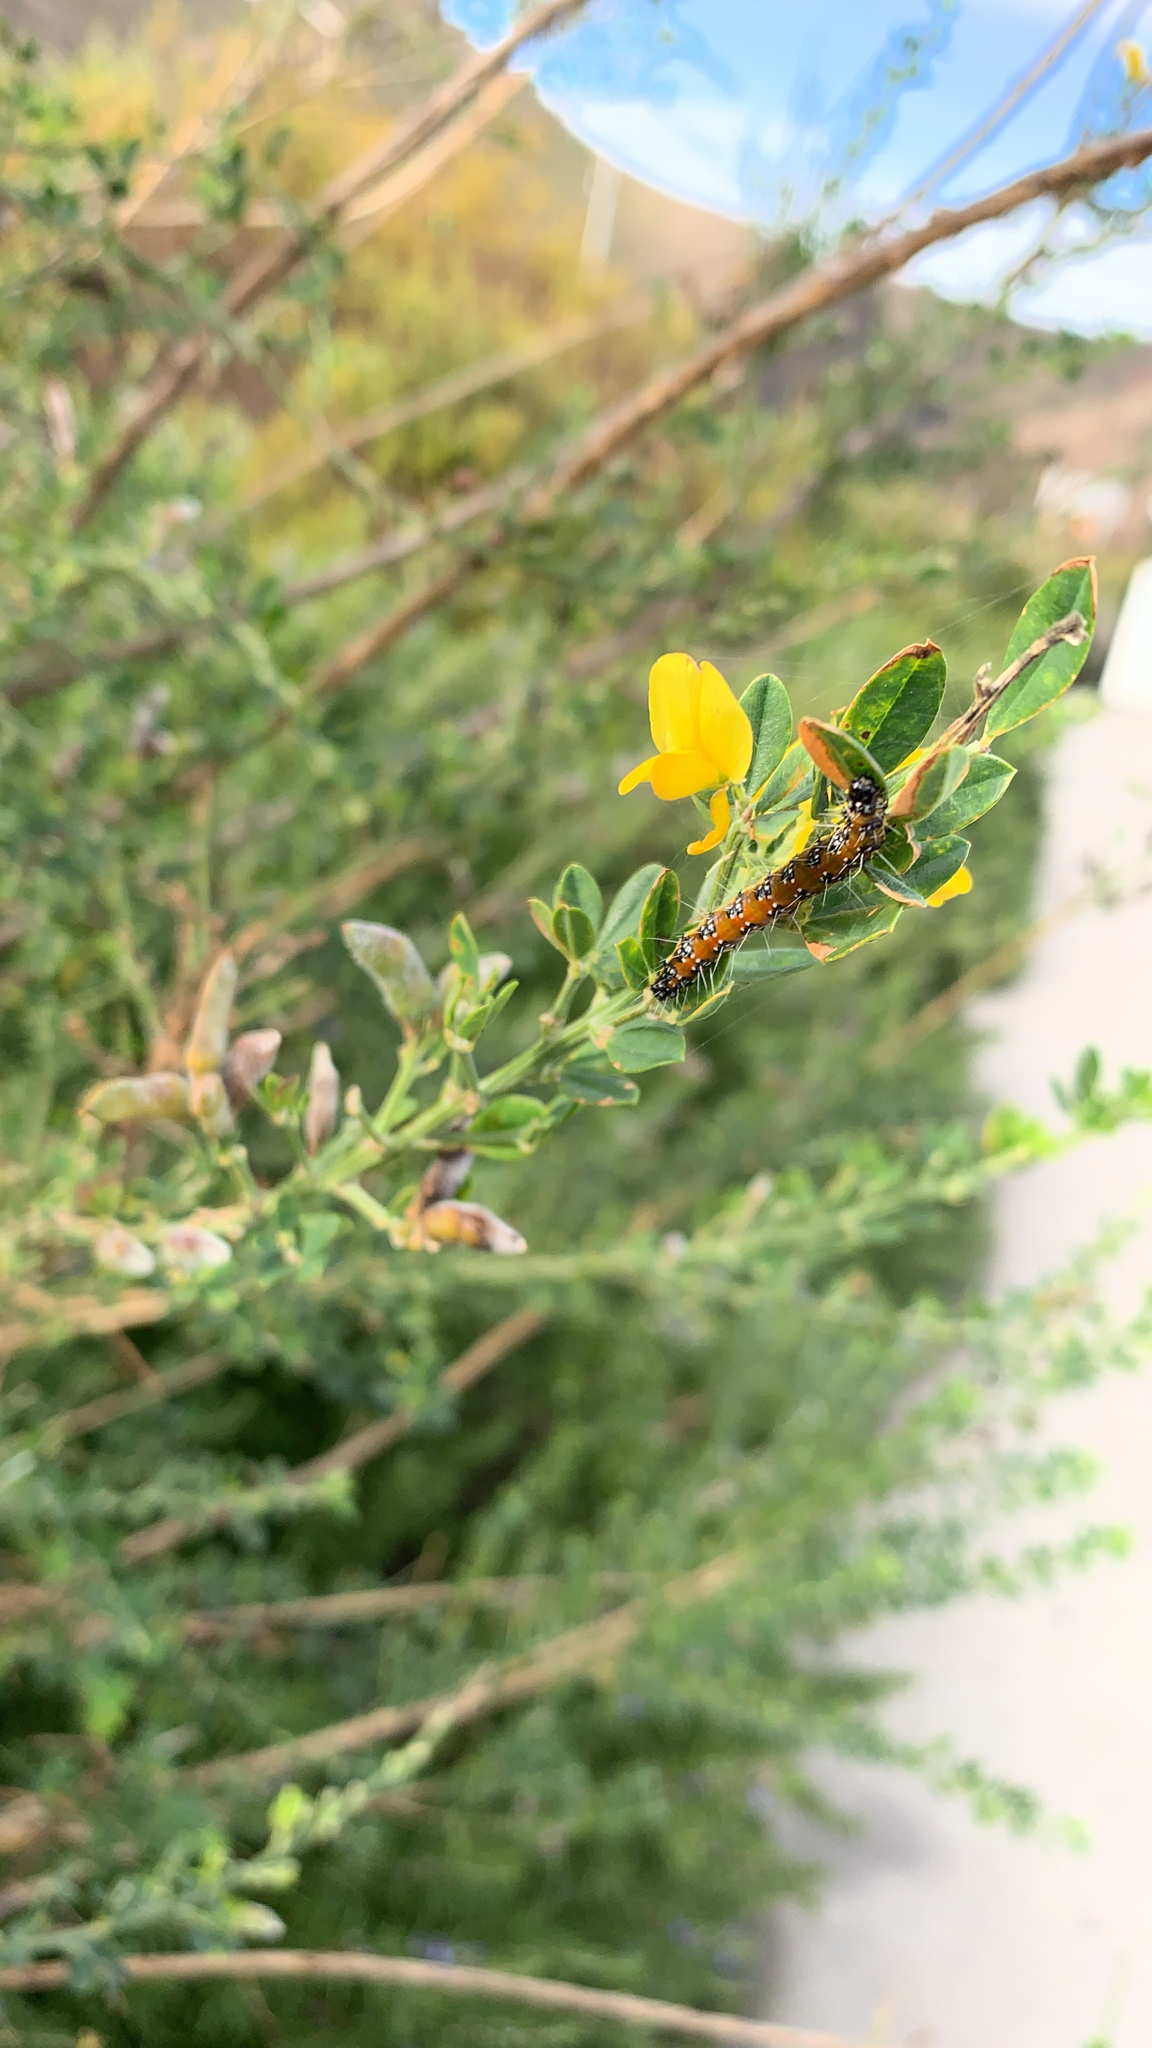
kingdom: Animalia
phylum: Arthropoda
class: Insecta
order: Lepidoptera
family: Crambidae
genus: Uresiphita
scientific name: Uresiphita reversalis
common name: Genista broom moth
